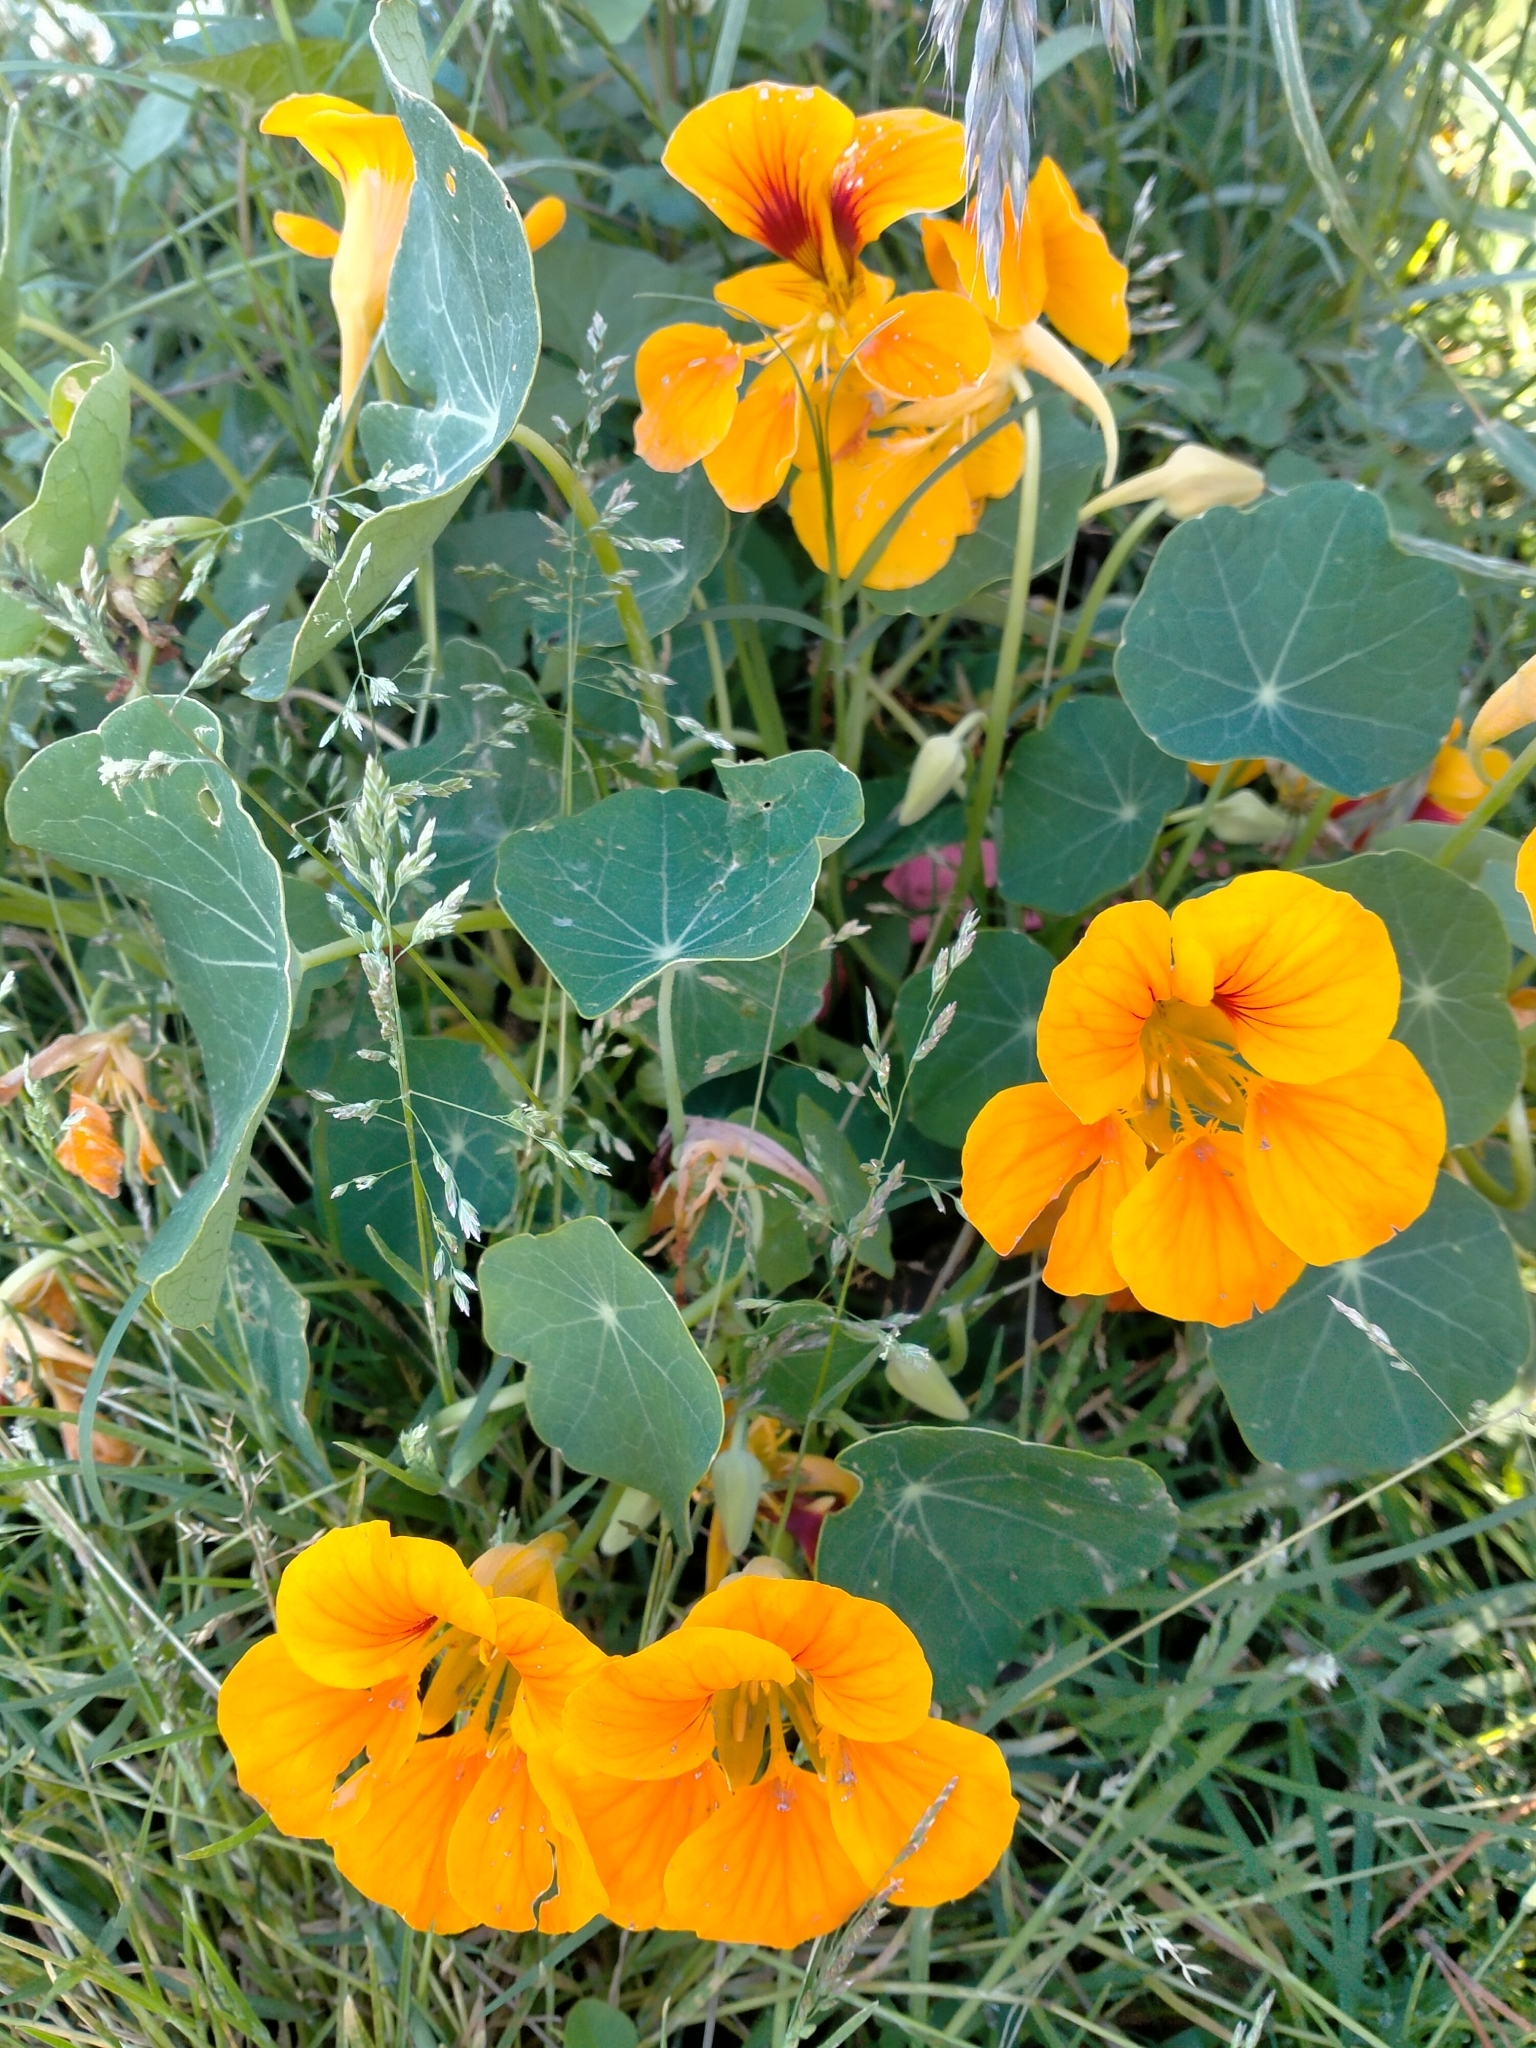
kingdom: Plantae
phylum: Tracheophyta
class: Magnoliopsida
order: Brassicales
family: Tropaeolaceae
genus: Tropaeolum
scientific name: Tropaeolum majus
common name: Nasturtium
